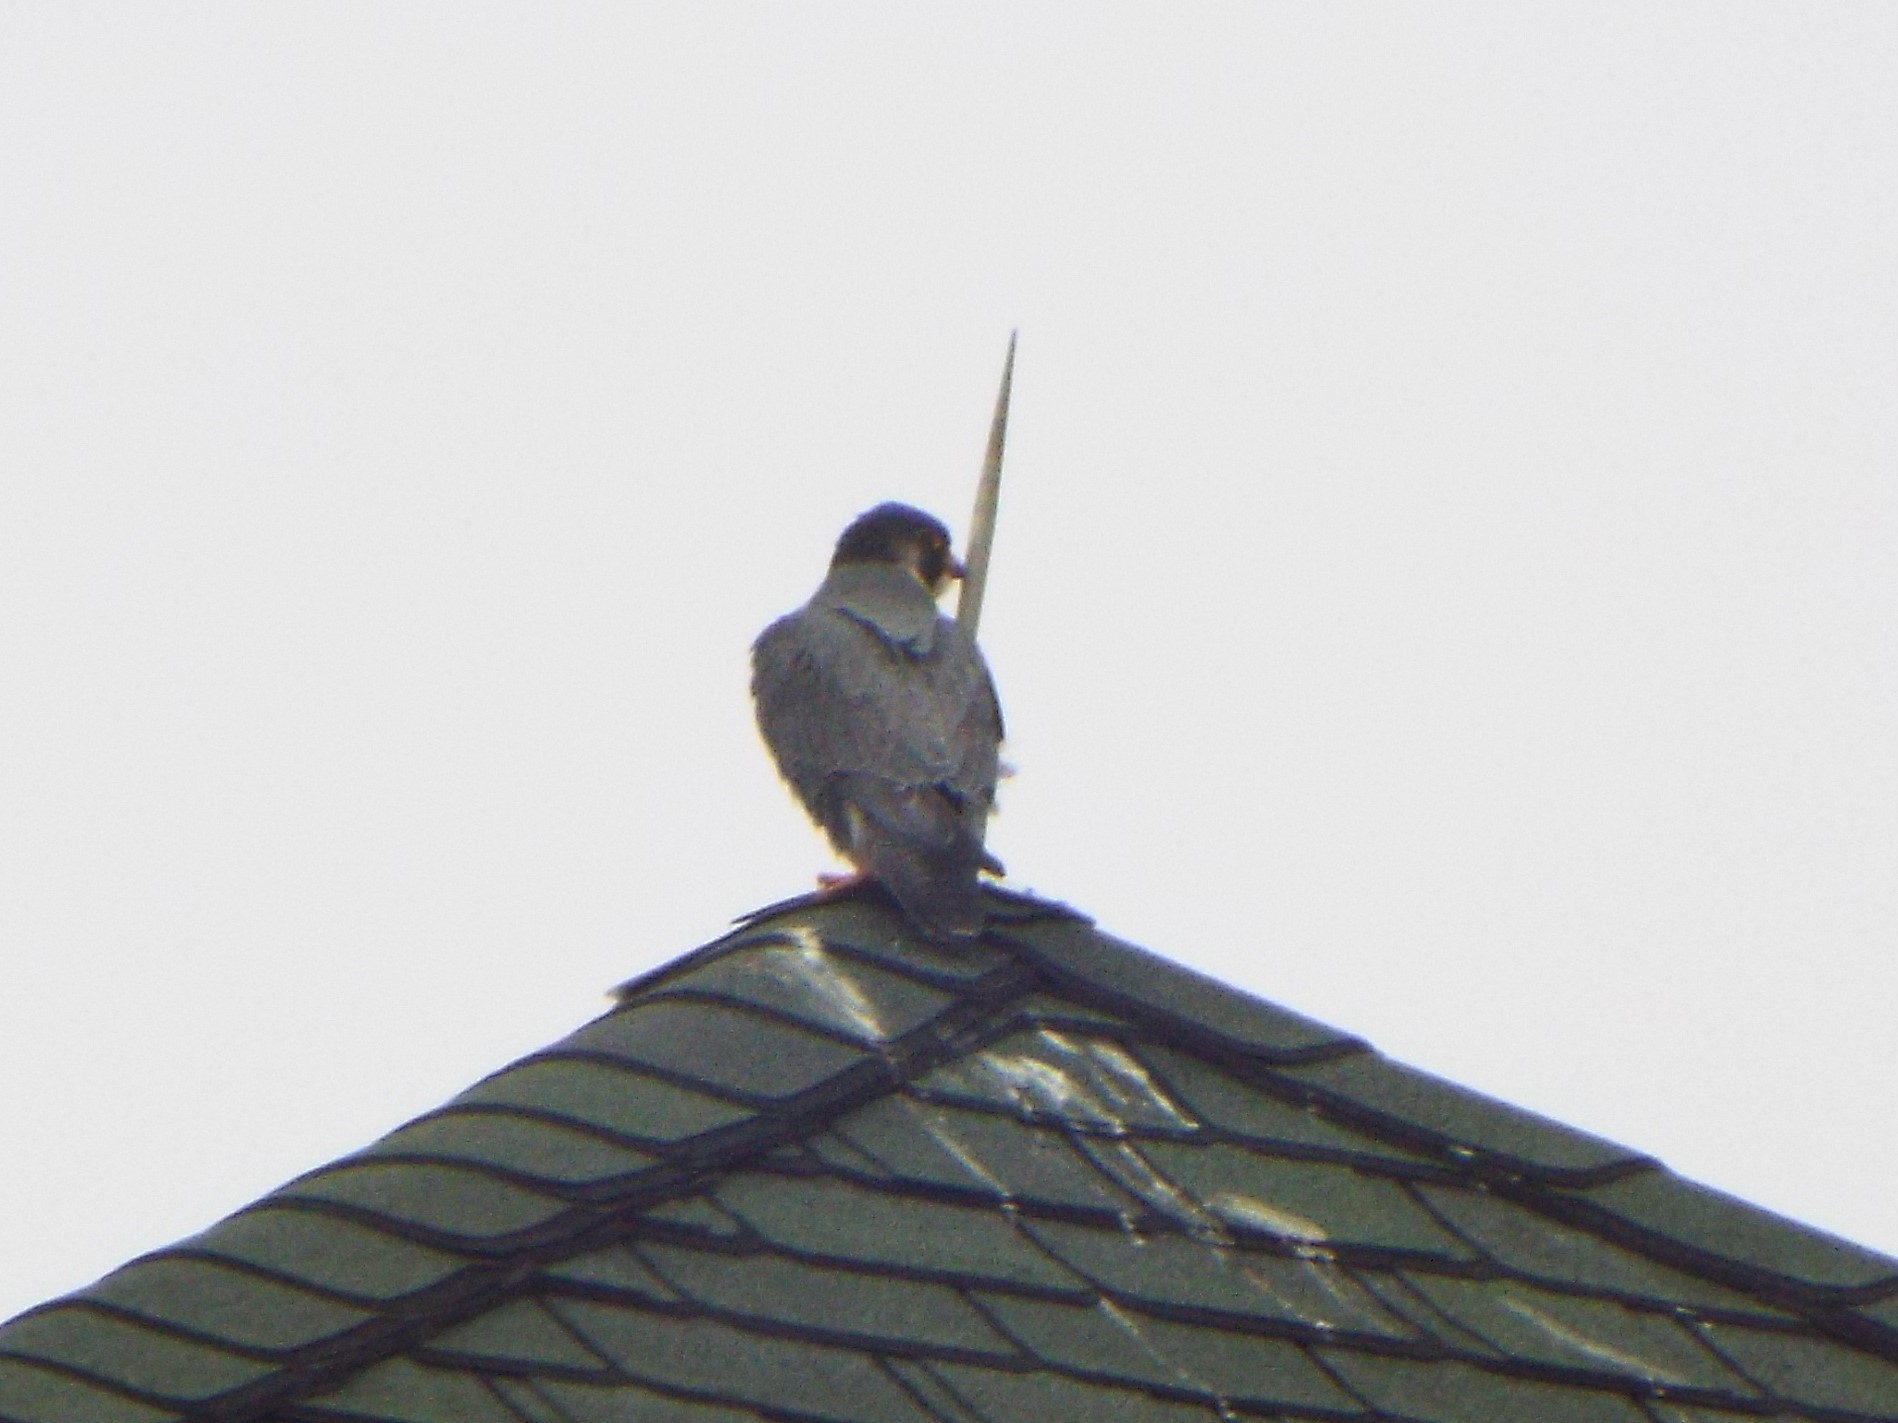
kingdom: Animalia
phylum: Chordata
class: Aves
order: Falconiformes
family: Falconidae
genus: Falco
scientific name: Falco peregrinus
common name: Peregrine falcon
